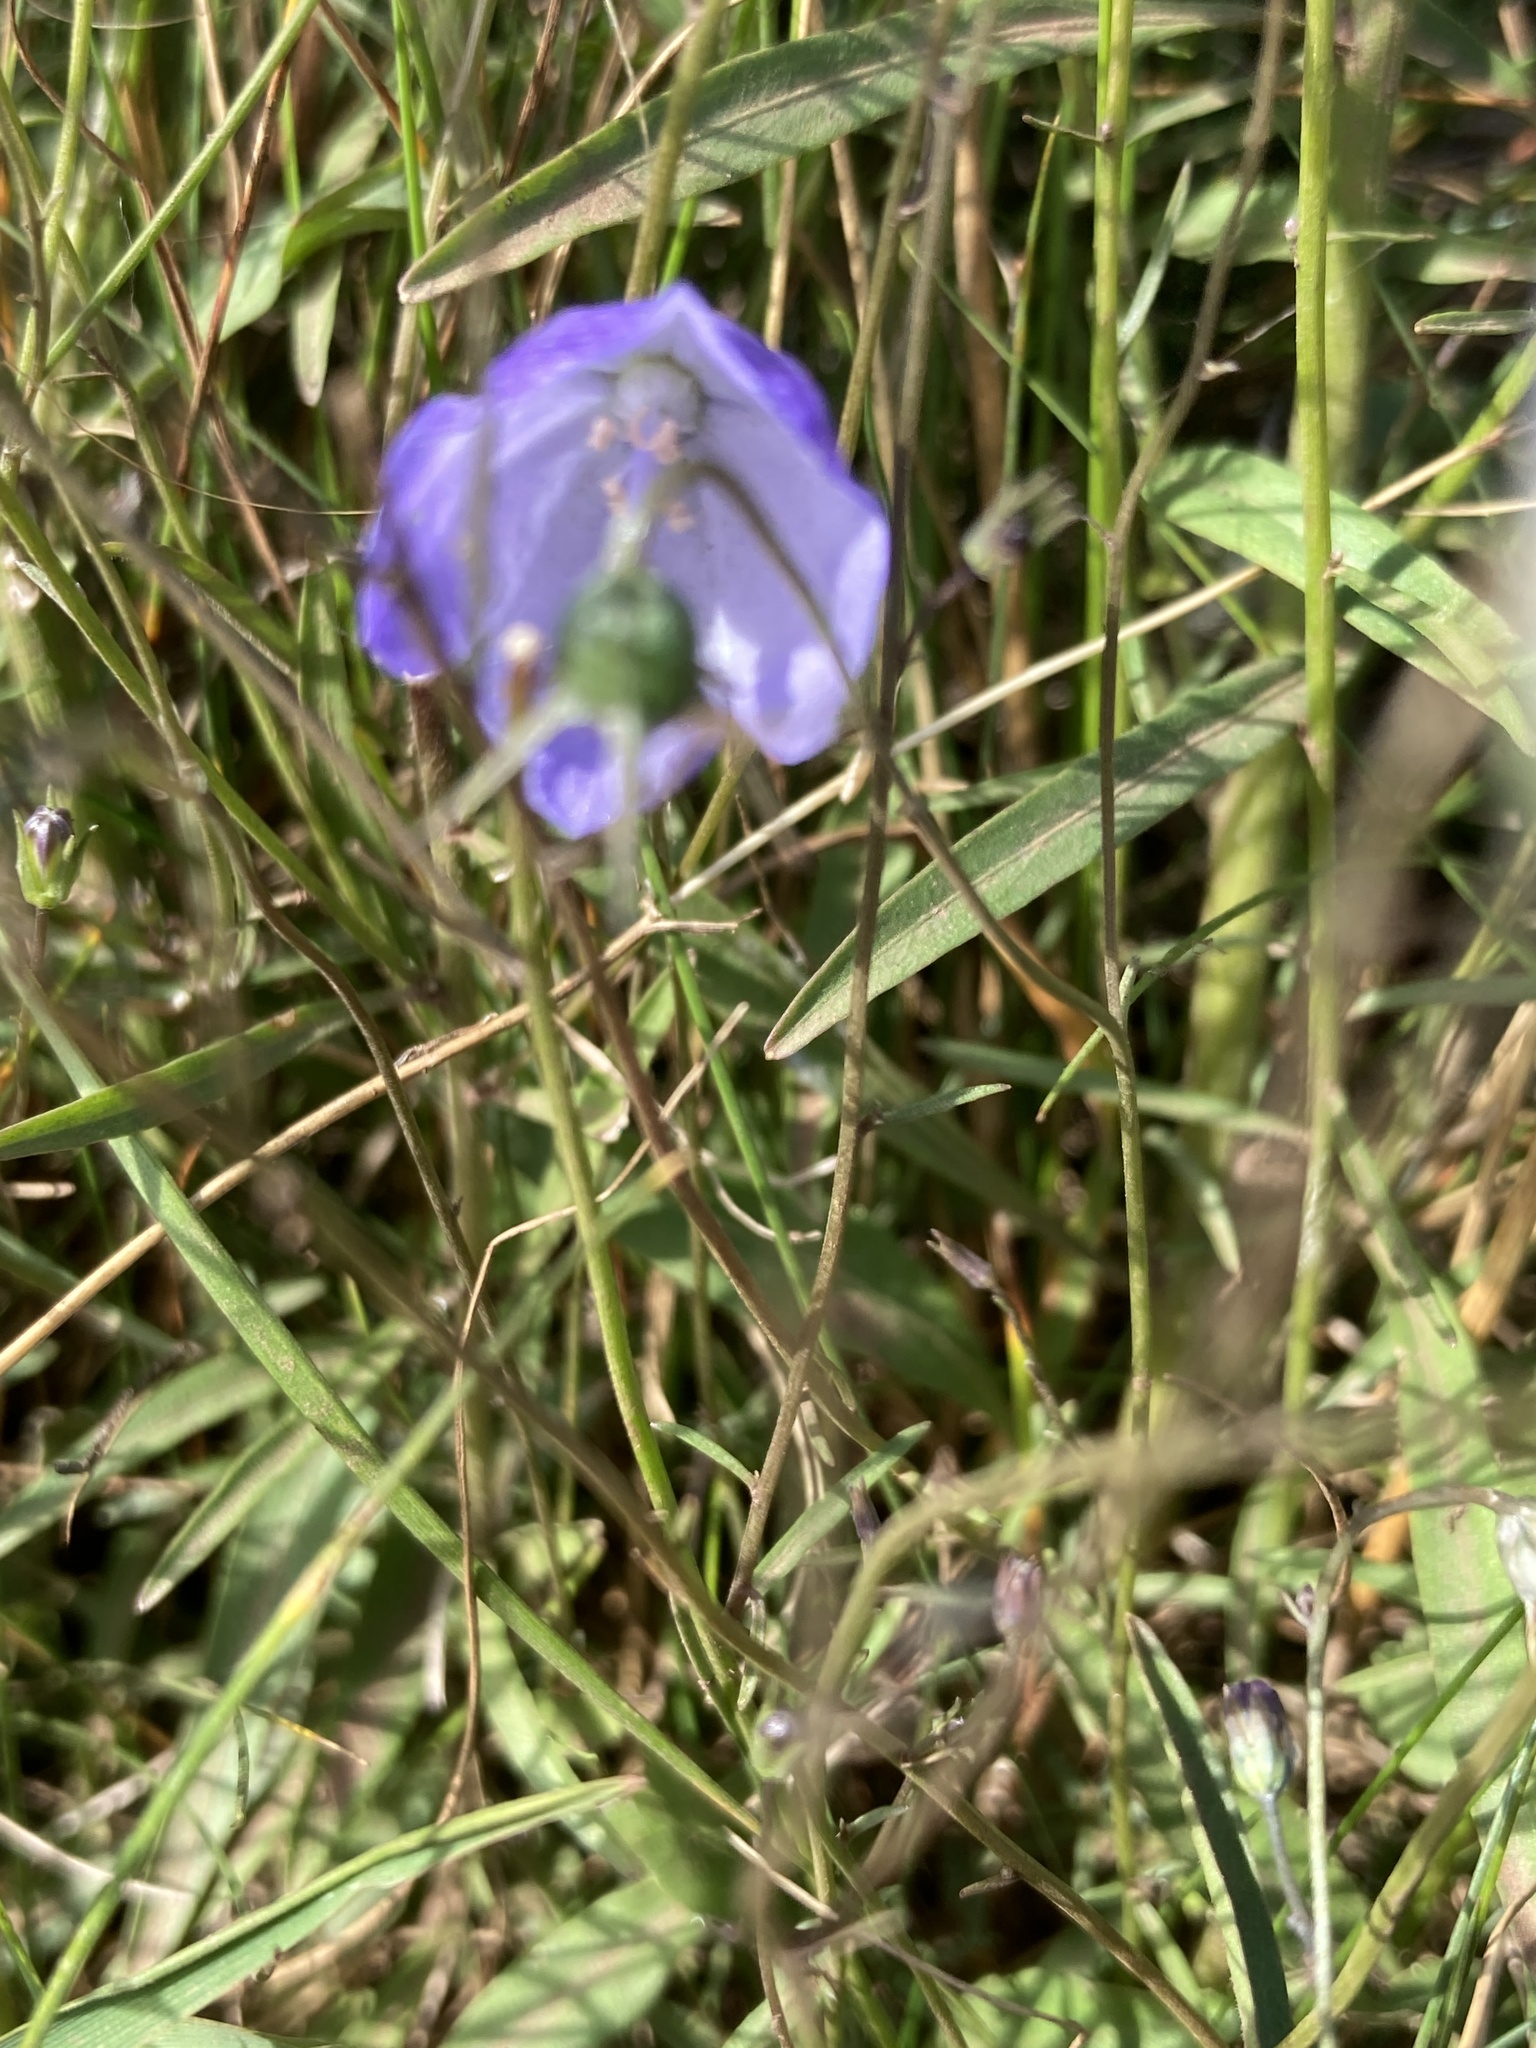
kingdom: Plantae
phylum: Tracheophyta
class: Magnoliopsida
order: Asterales
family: Campanulaceae
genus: Campanula
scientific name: Campanula rotundifolia
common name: Harebell
